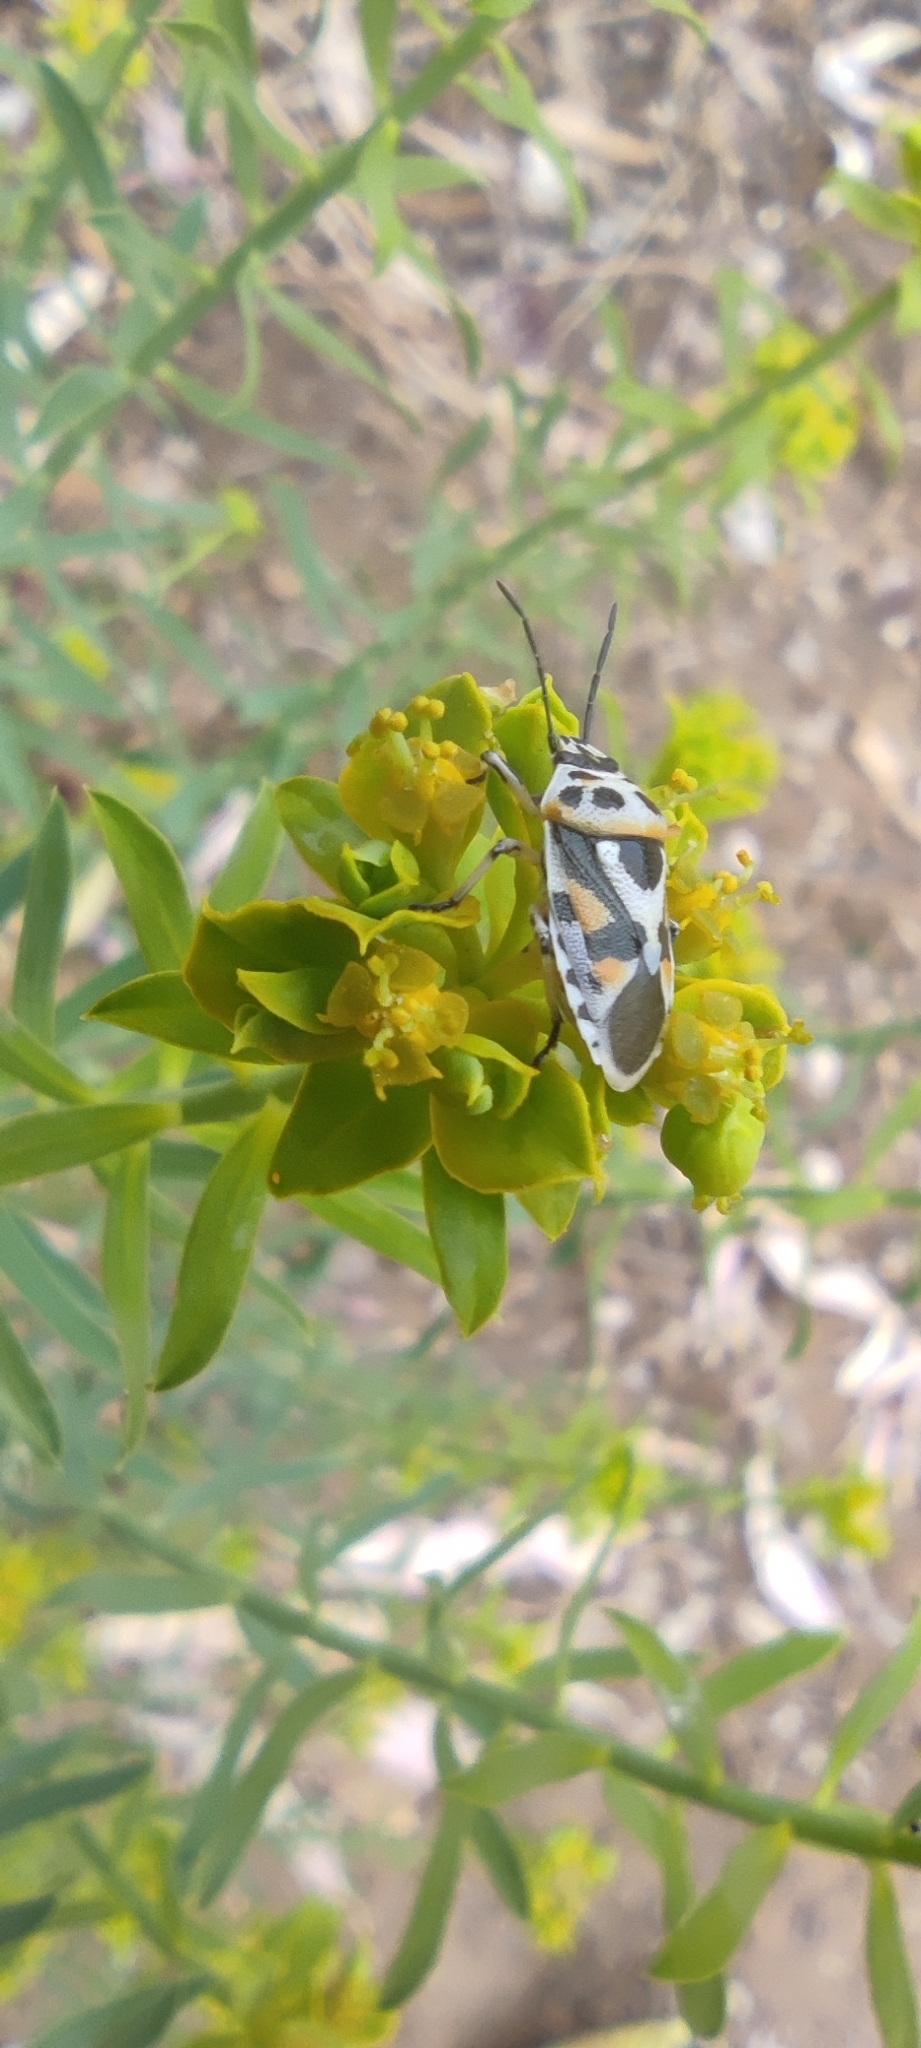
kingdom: Animalia
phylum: Arthropoda
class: Insecta
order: Hemiptera
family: Pentatomidae
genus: Eurydema
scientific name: Eurydema ornata
